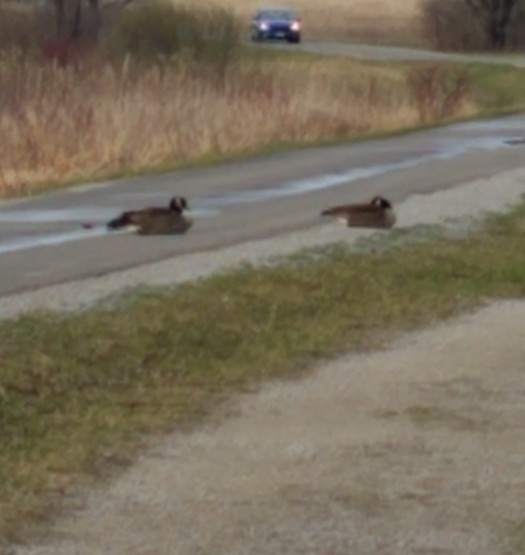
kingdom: Animalia
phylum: Chordata
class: Aves
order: Anseriformes
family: Anatidae
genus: Branta
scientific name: Branta canadensis
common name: Canada goose
